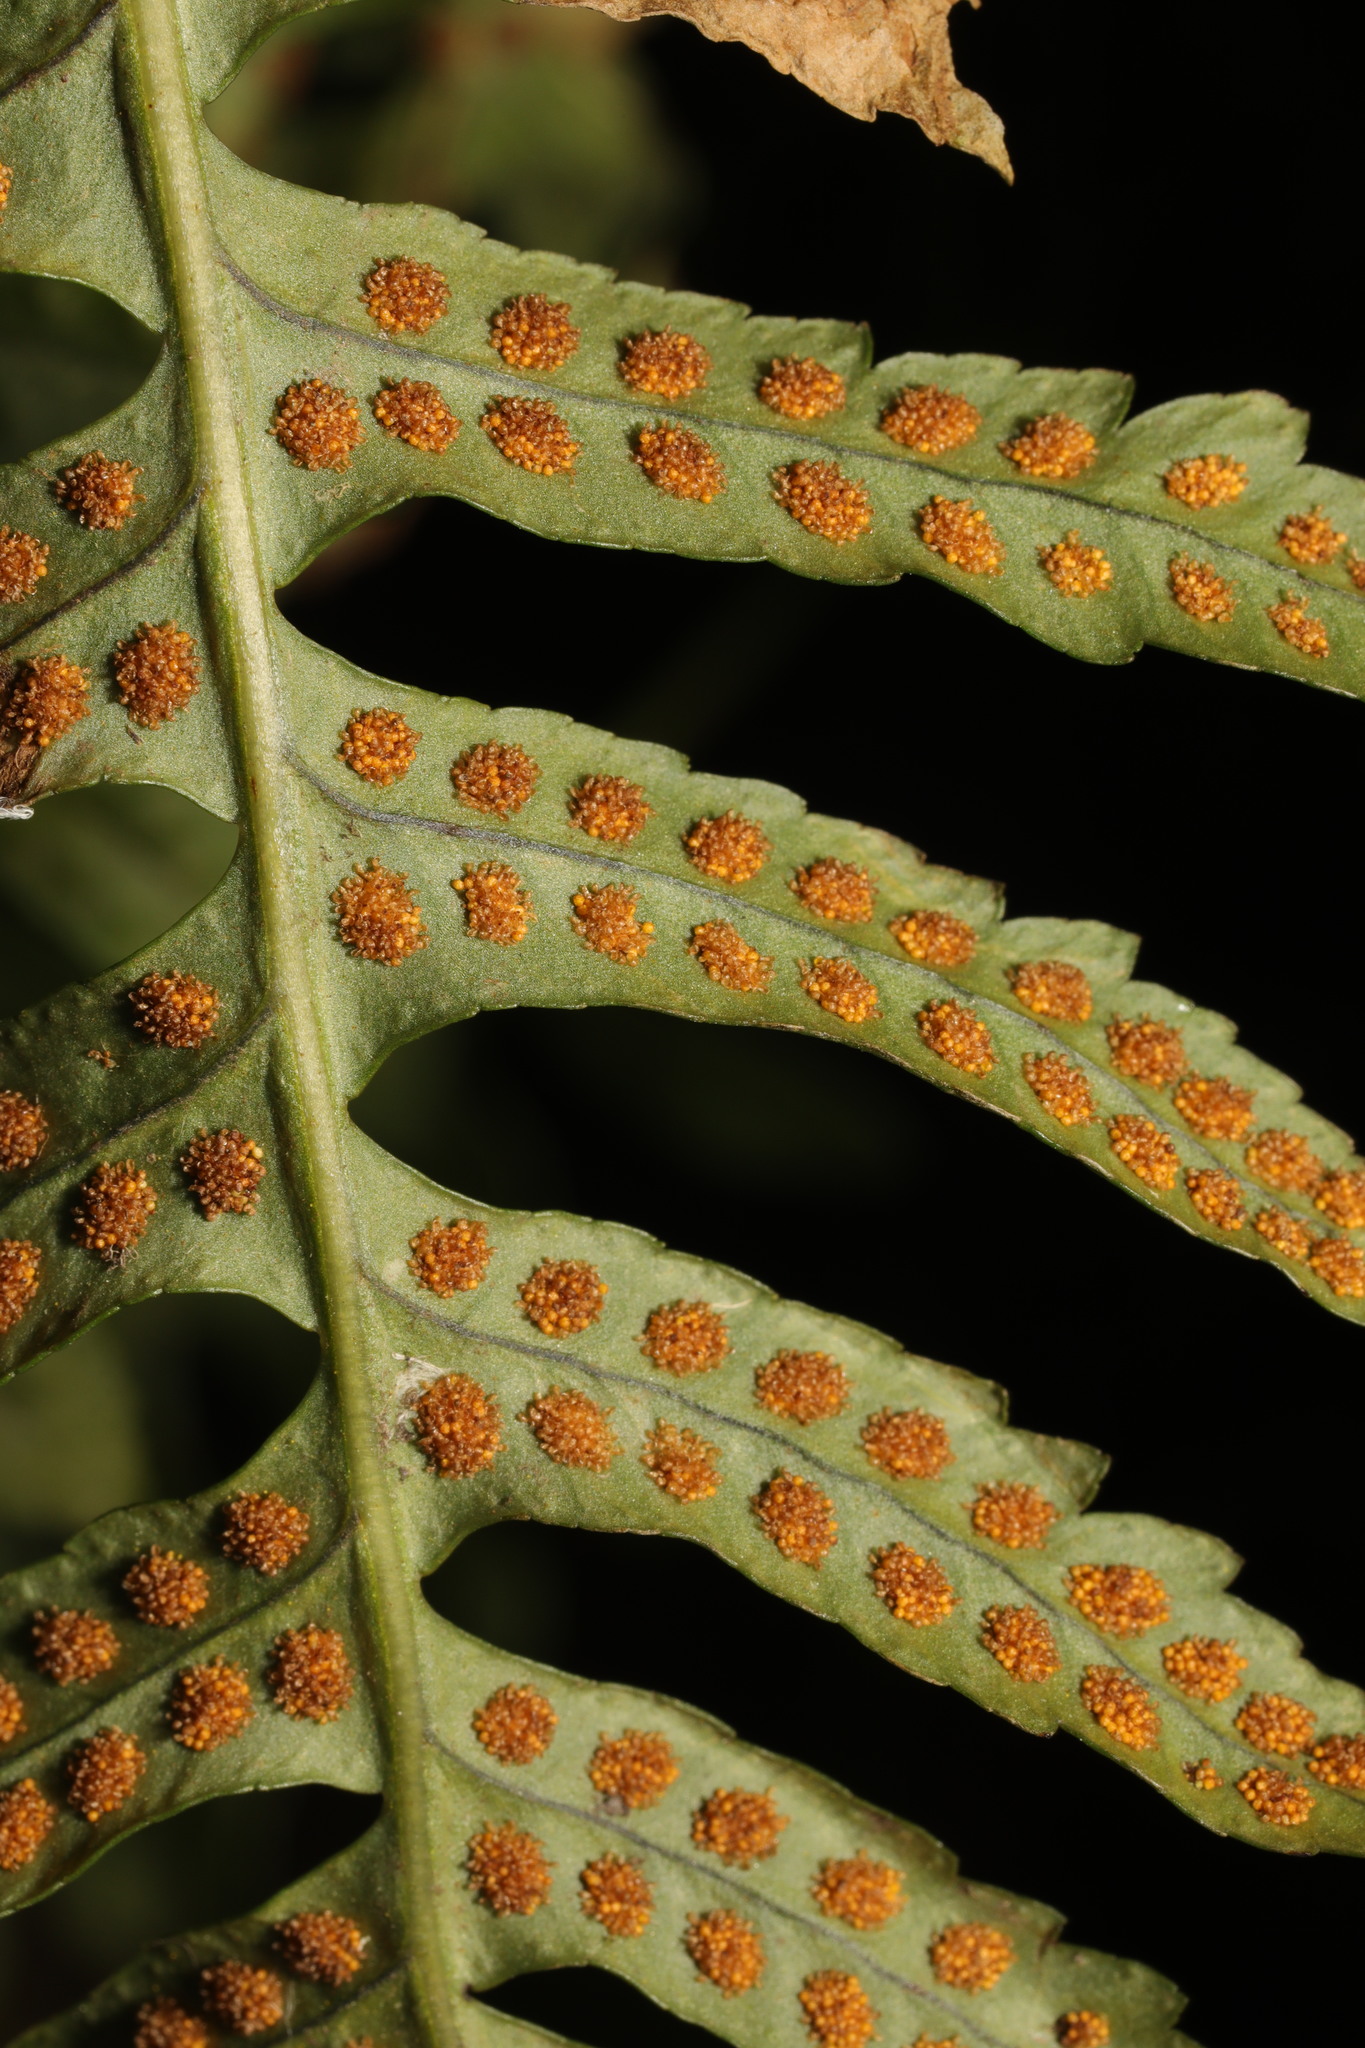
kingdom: Plantae
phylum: Tracheophyta
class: Polypodiopsida
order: Polypodiales
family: Polypodiaceae
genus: Polypodium
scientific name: Polypodium vulgare
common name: Common polypody
